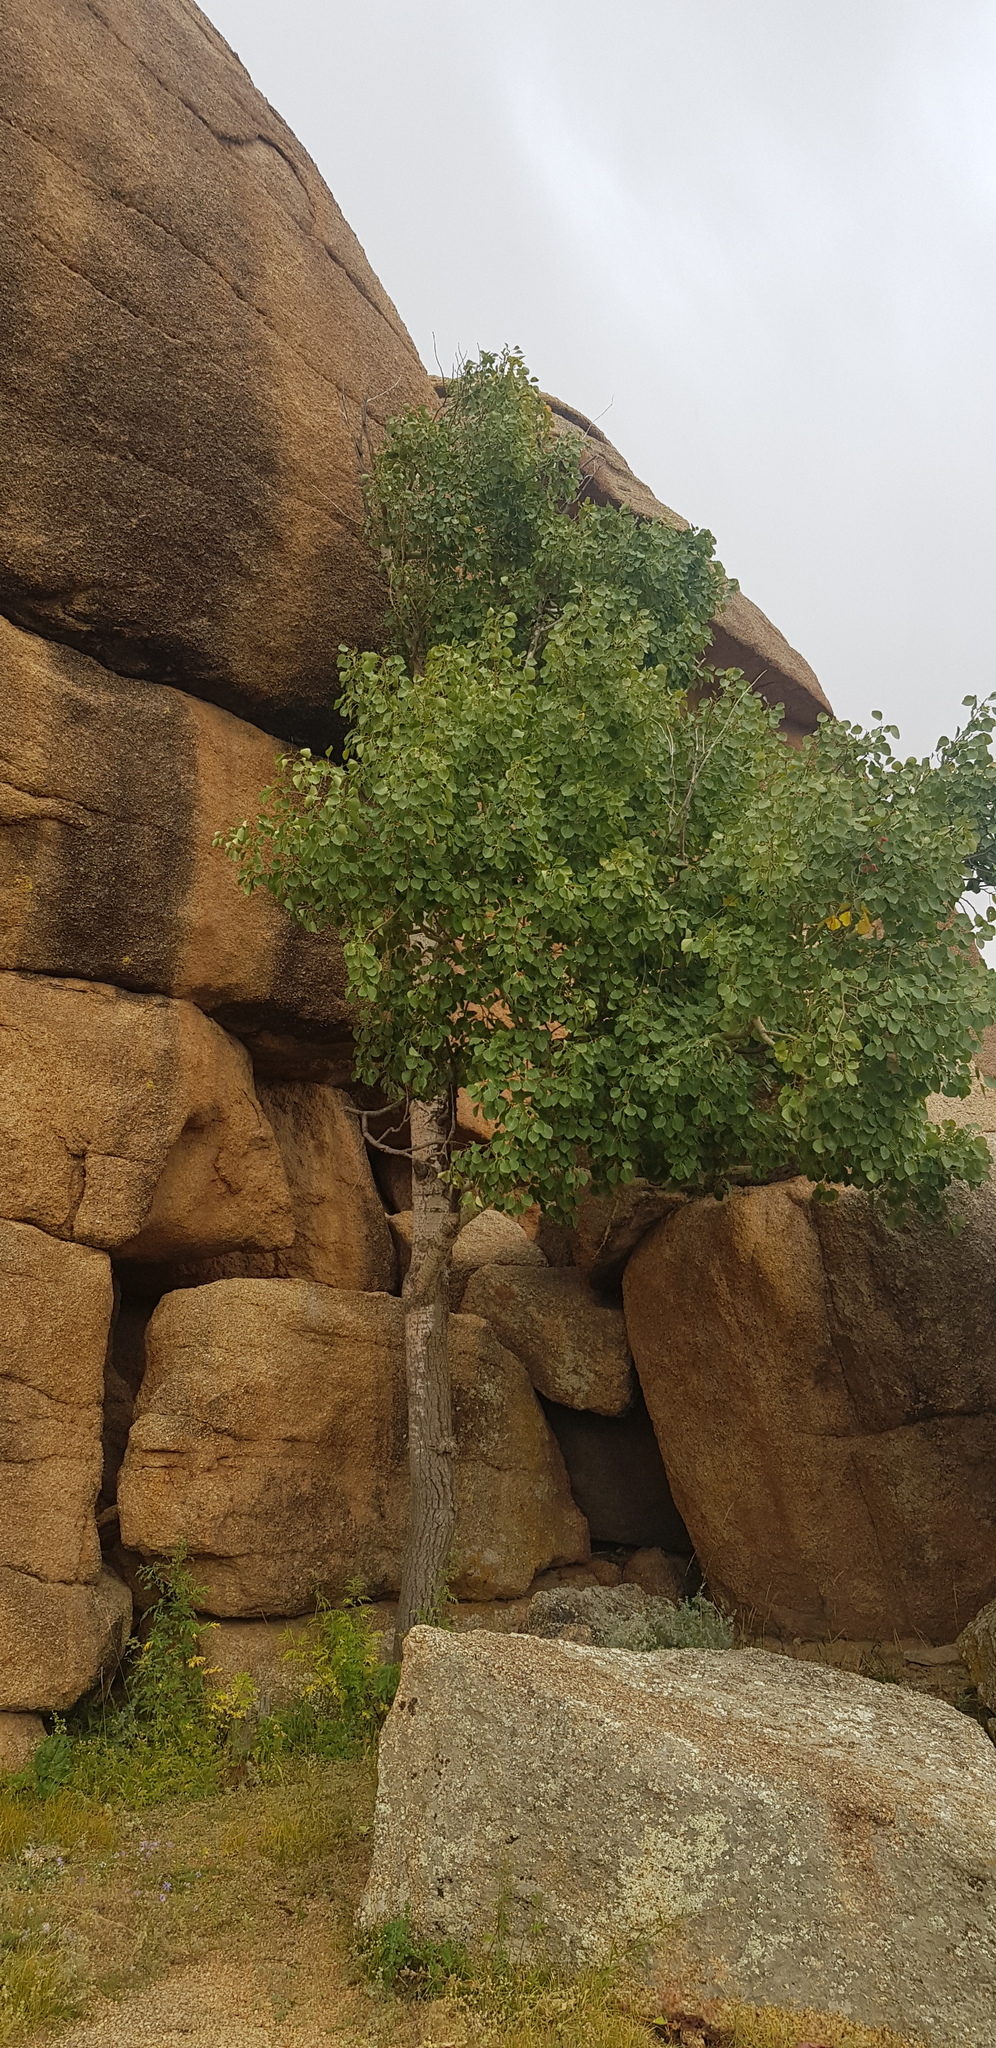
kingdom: Plantae
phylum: Tracheophyta
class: Magnoliopsida
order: Malpighiales
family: Salicaceae
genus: Populus
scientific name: Populus tremula
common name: European aspen
